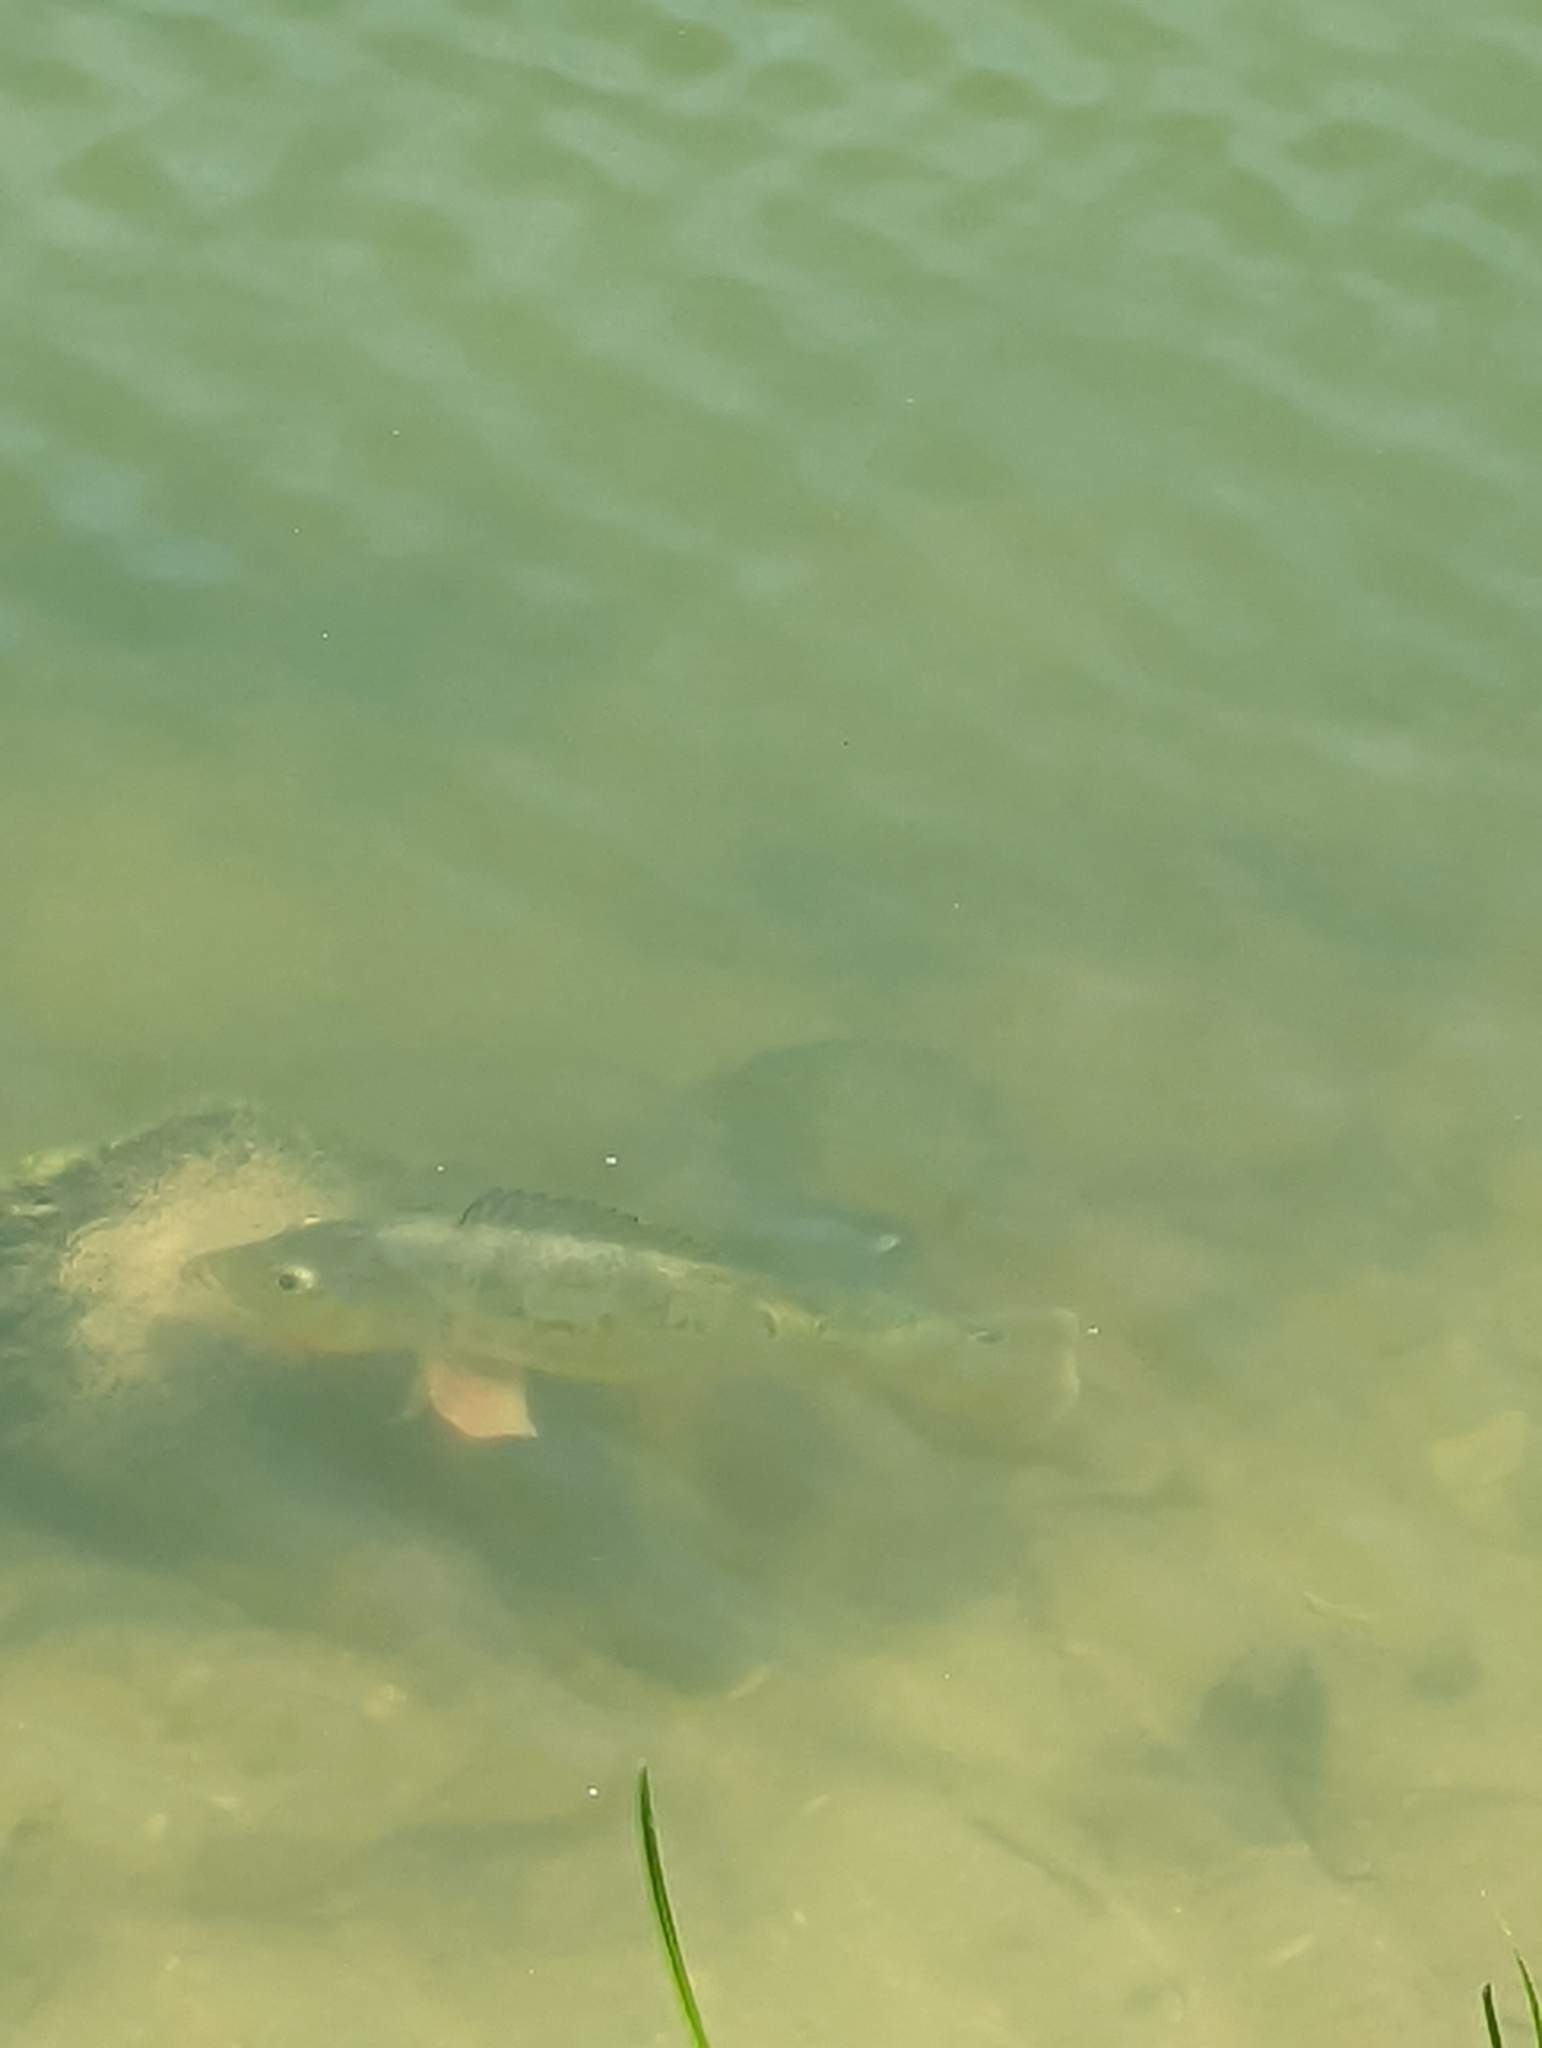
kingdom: Animalia
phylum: Chordata
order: Perciformes
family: Cichlidae
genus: Cichla
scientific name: Cichla ocellaris
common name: Peacock cichlid
